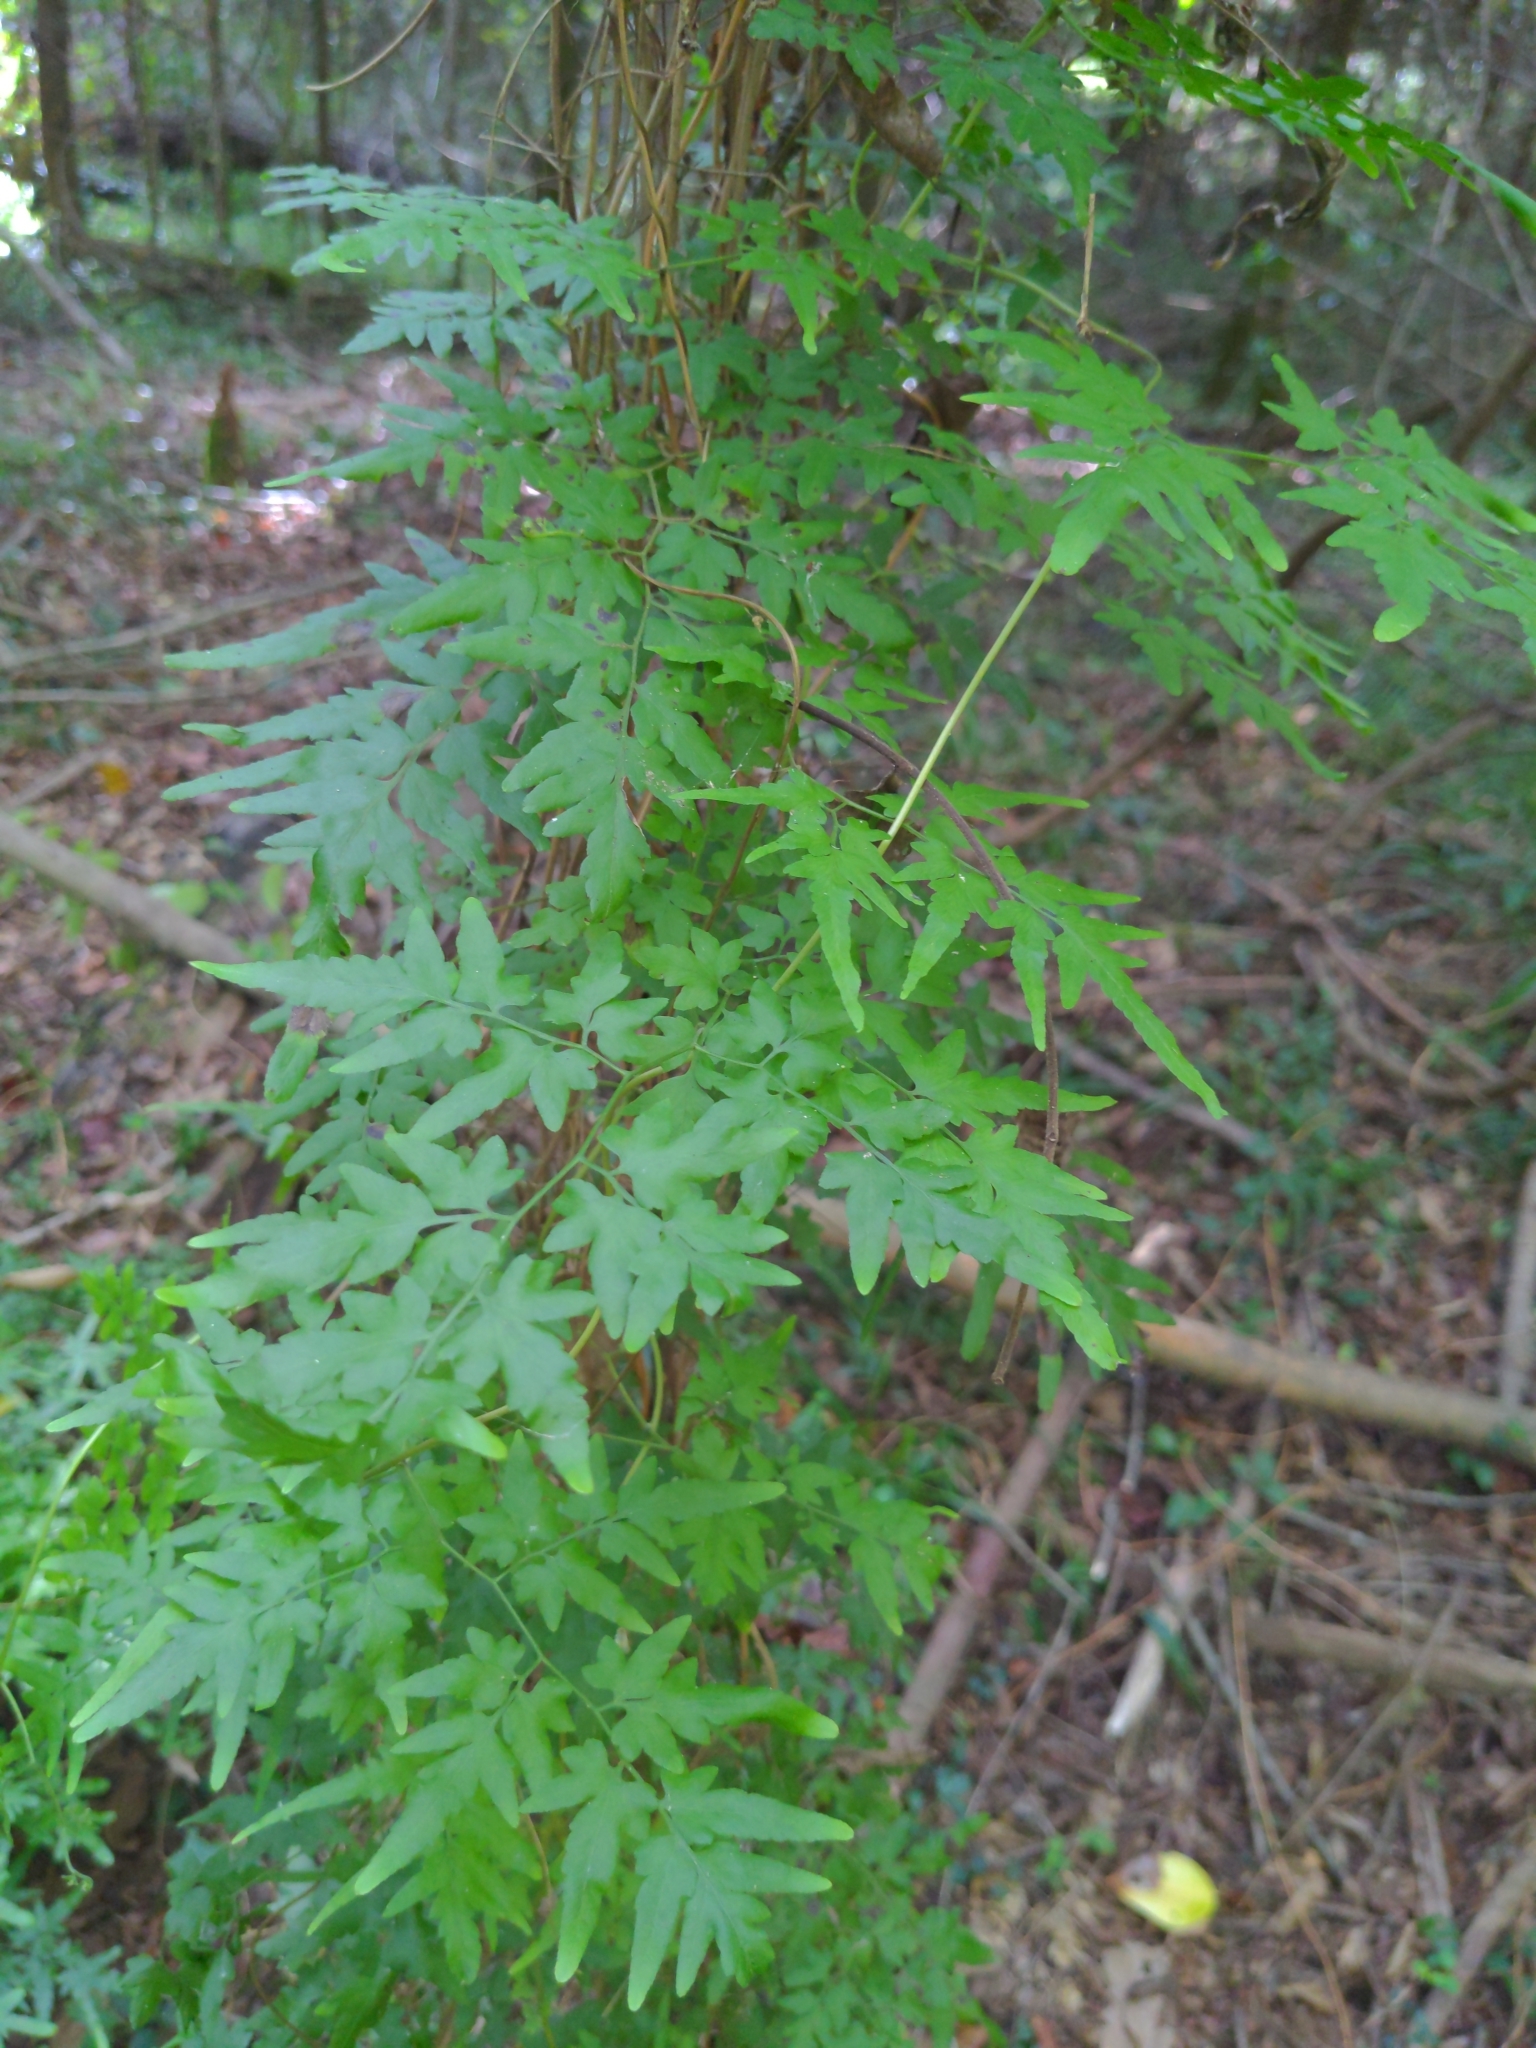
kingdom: Plantae
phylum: Tracheophyta
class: Polypodiopsida
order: Schizaeales
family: Lygodiaceae
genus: Lygodium
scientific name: Lygodium japonicum
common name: Japanese climbing fern
